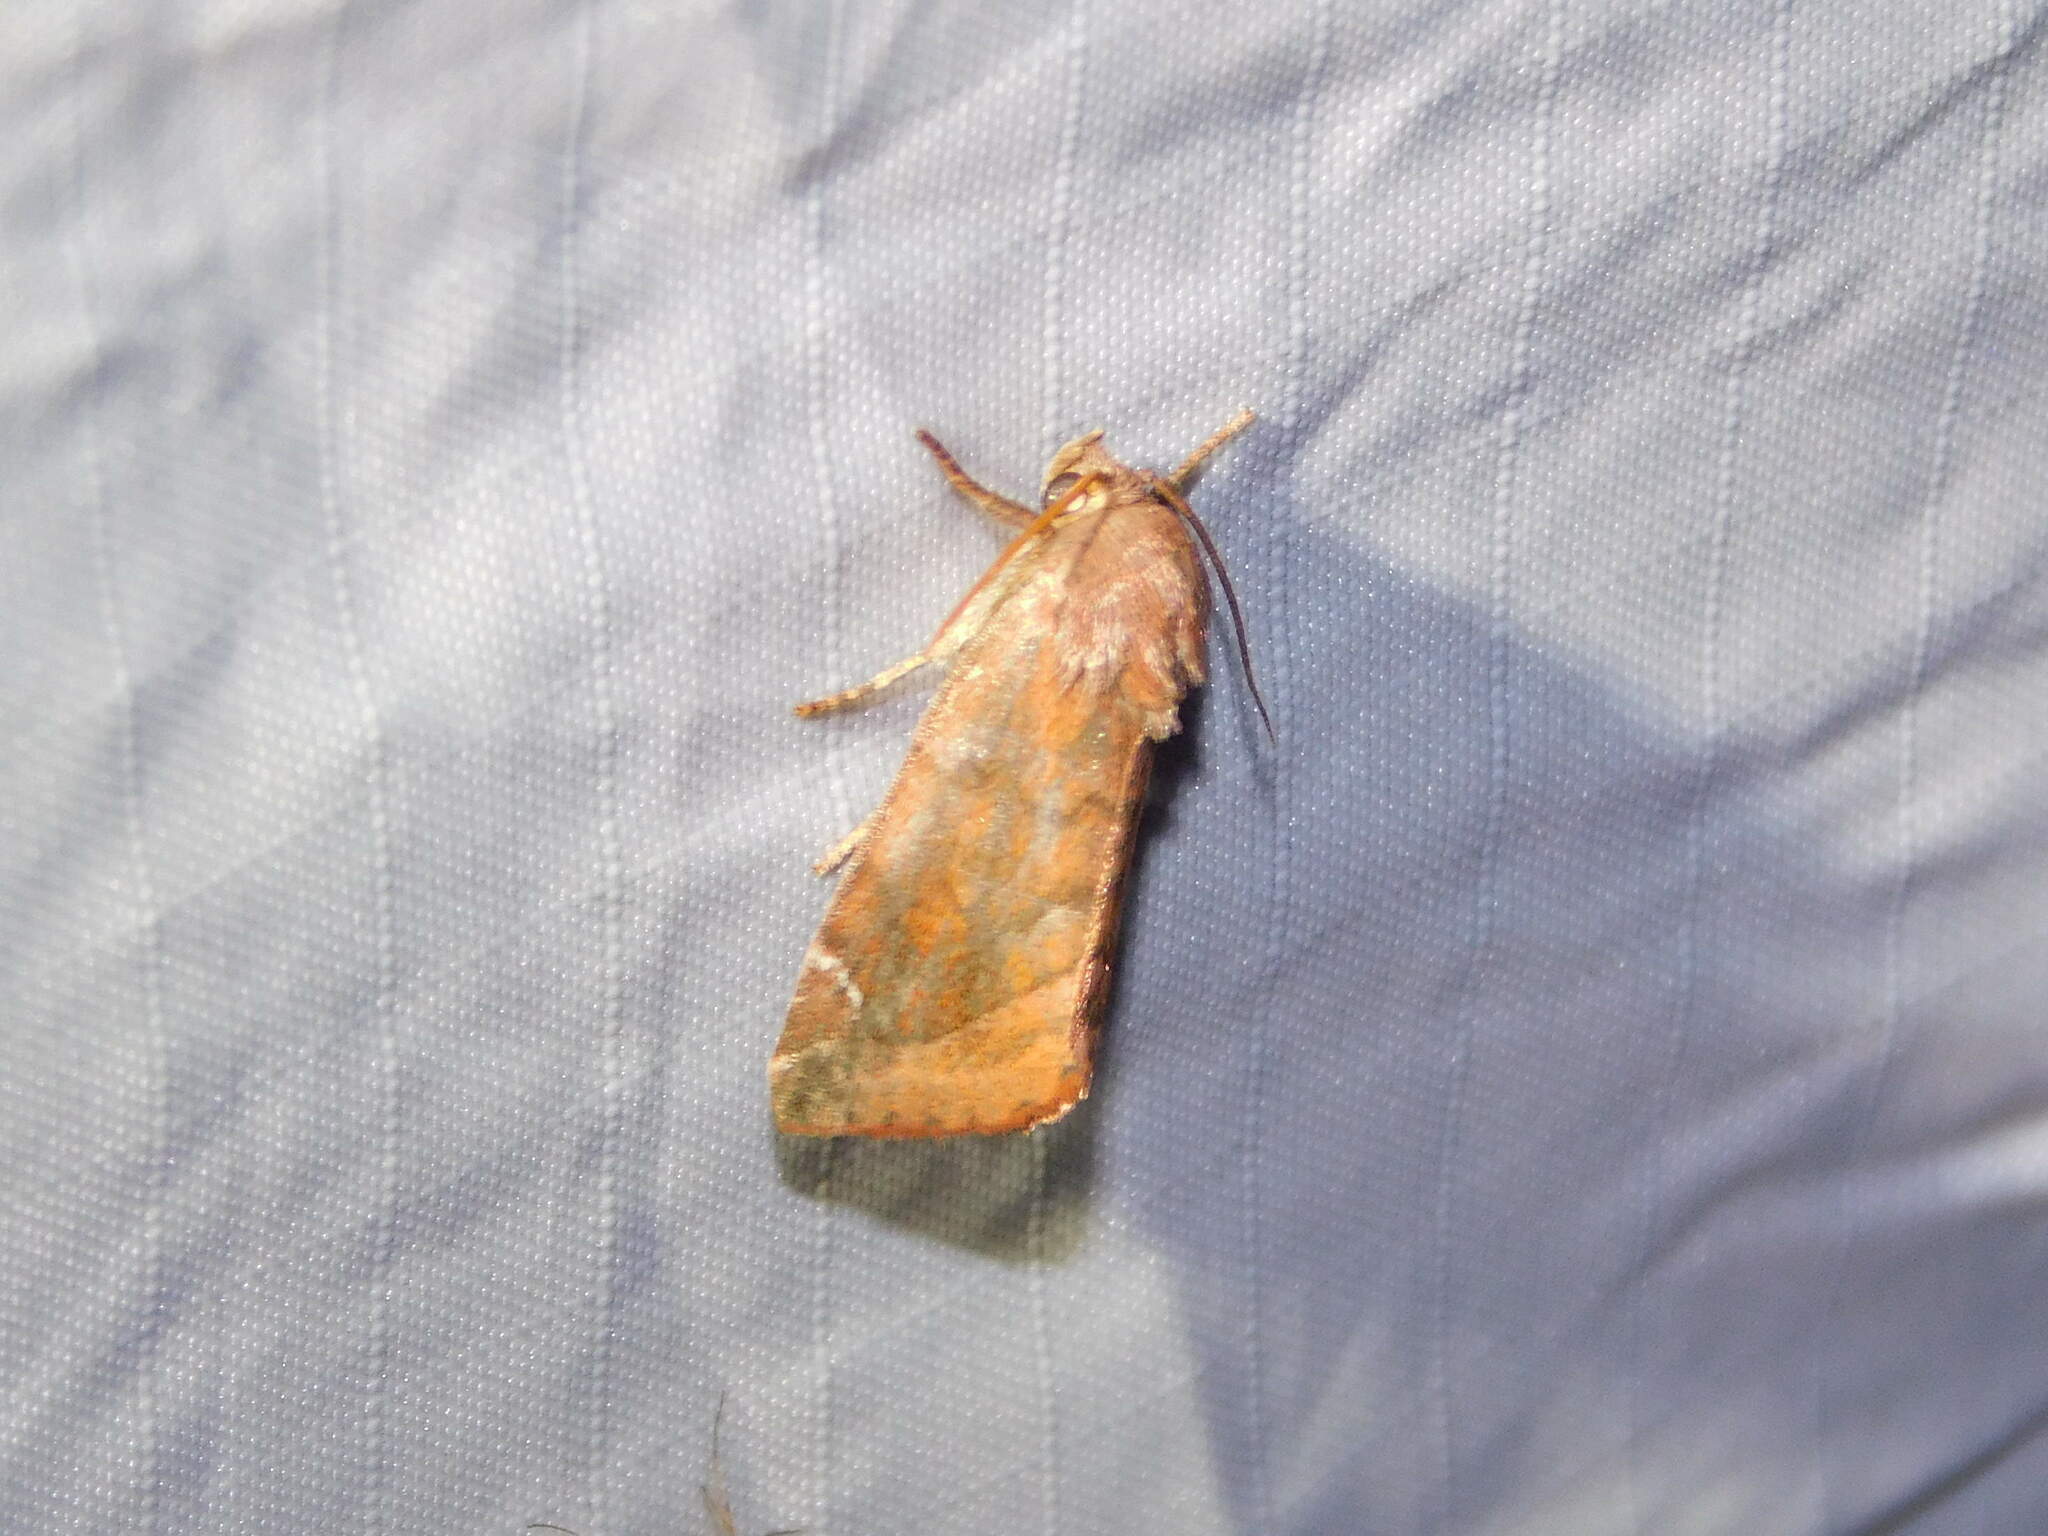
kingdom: Animalia
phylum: Arthropoda
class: Insecta
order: Lepidoptera
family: Noctuidae
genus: Cosmia
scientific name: Cosmia pyralina
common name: Lunar-spotted pinion
